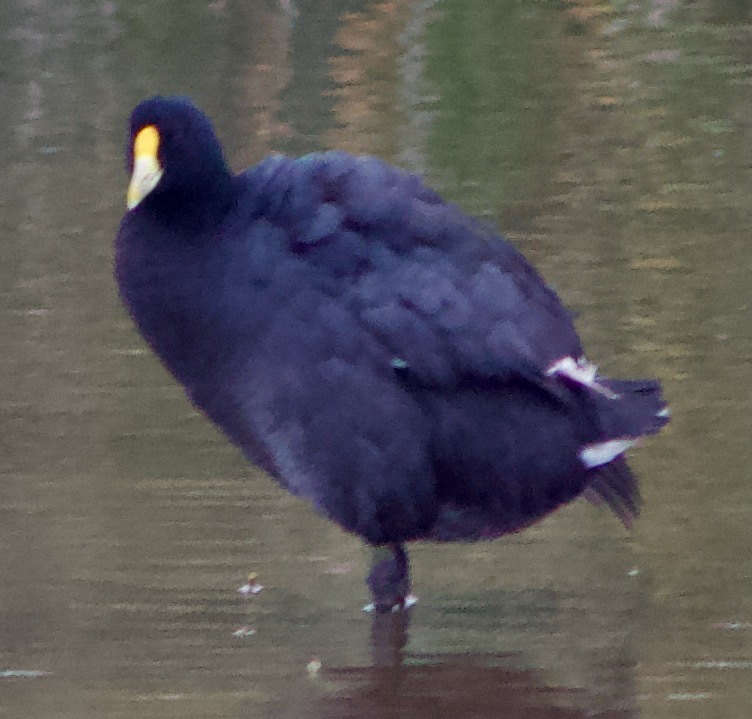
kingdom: Animalia
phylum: Chordata
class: Aves
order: Gruiformes
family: Rallidae
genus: Fulica
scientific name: Fulica leucoptera
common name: White-winged coot
